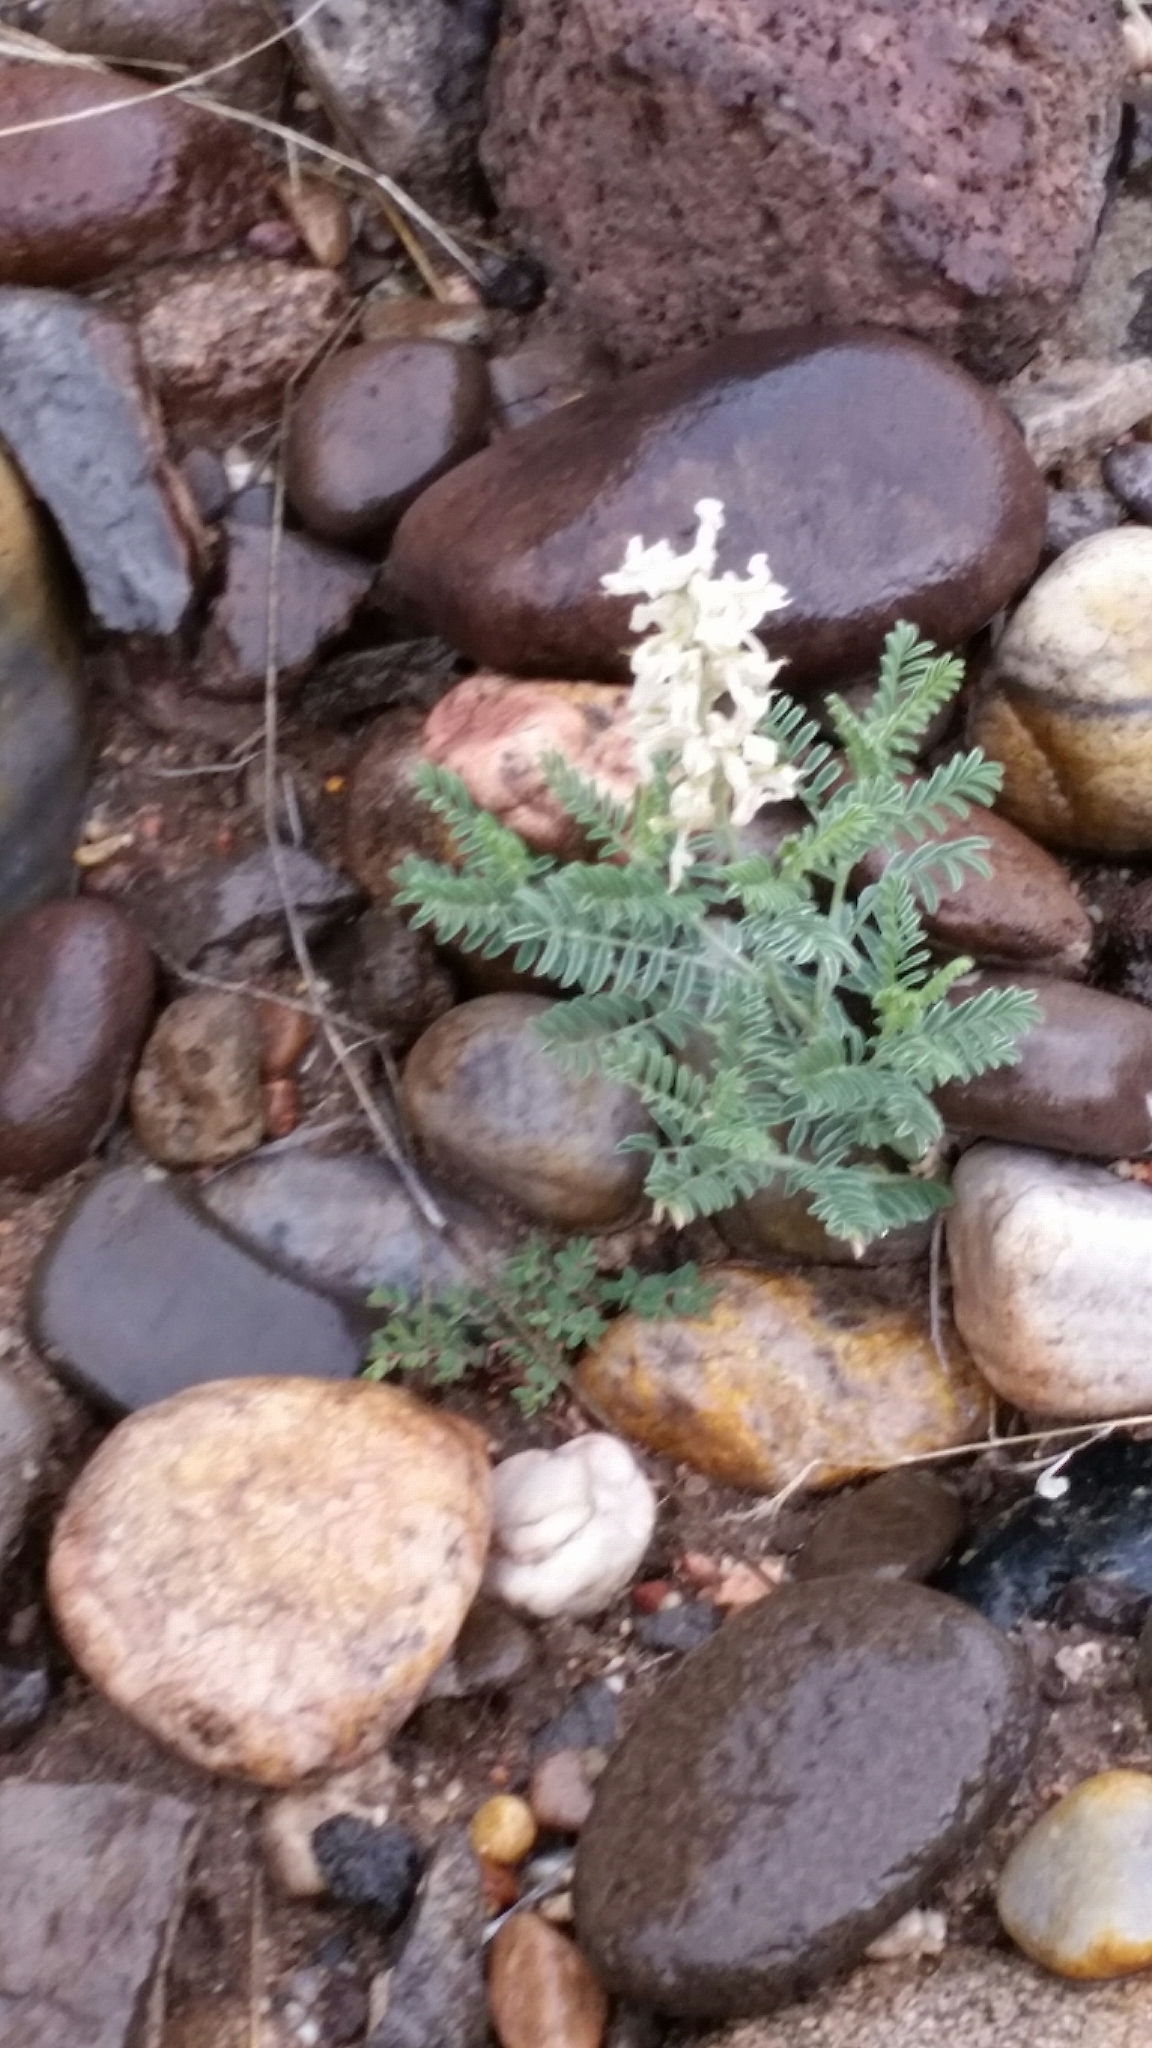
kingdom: Plantae
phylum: Tracheophyta
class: Magnoliopsida
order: Fabales
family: Fabaceae
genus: Sophora
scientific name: Sophora nuttalliana
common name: Silky sophora
